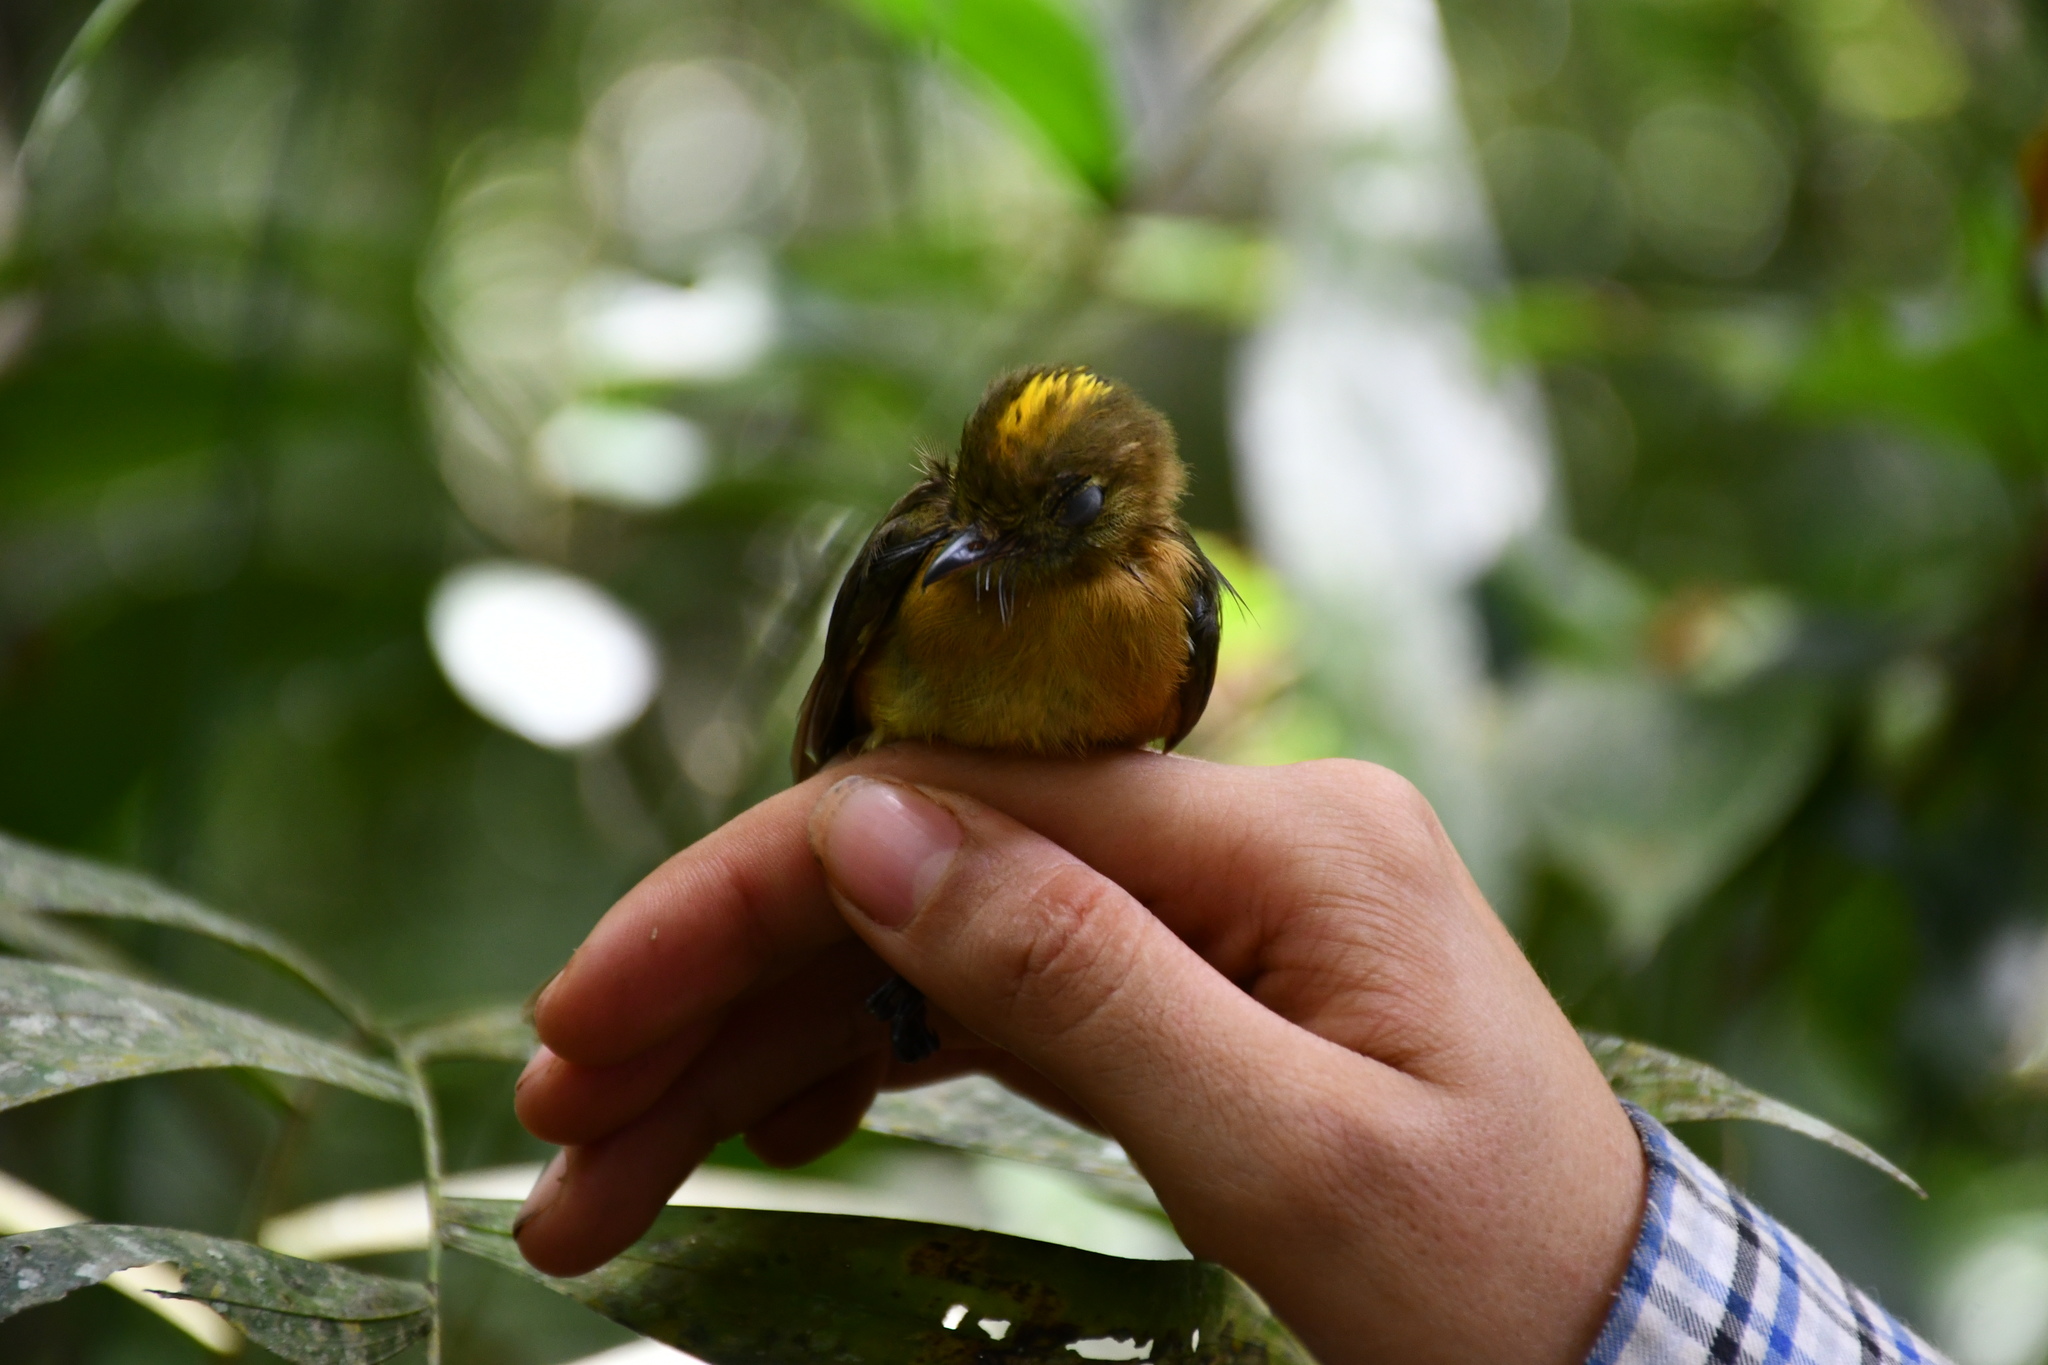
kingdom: Animalia
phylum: Chordata
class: Aves
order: Passeriformes
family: Tyrannidae
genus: Myiobius
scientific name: Myiobius barbatus
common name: Whiskered myiobius
